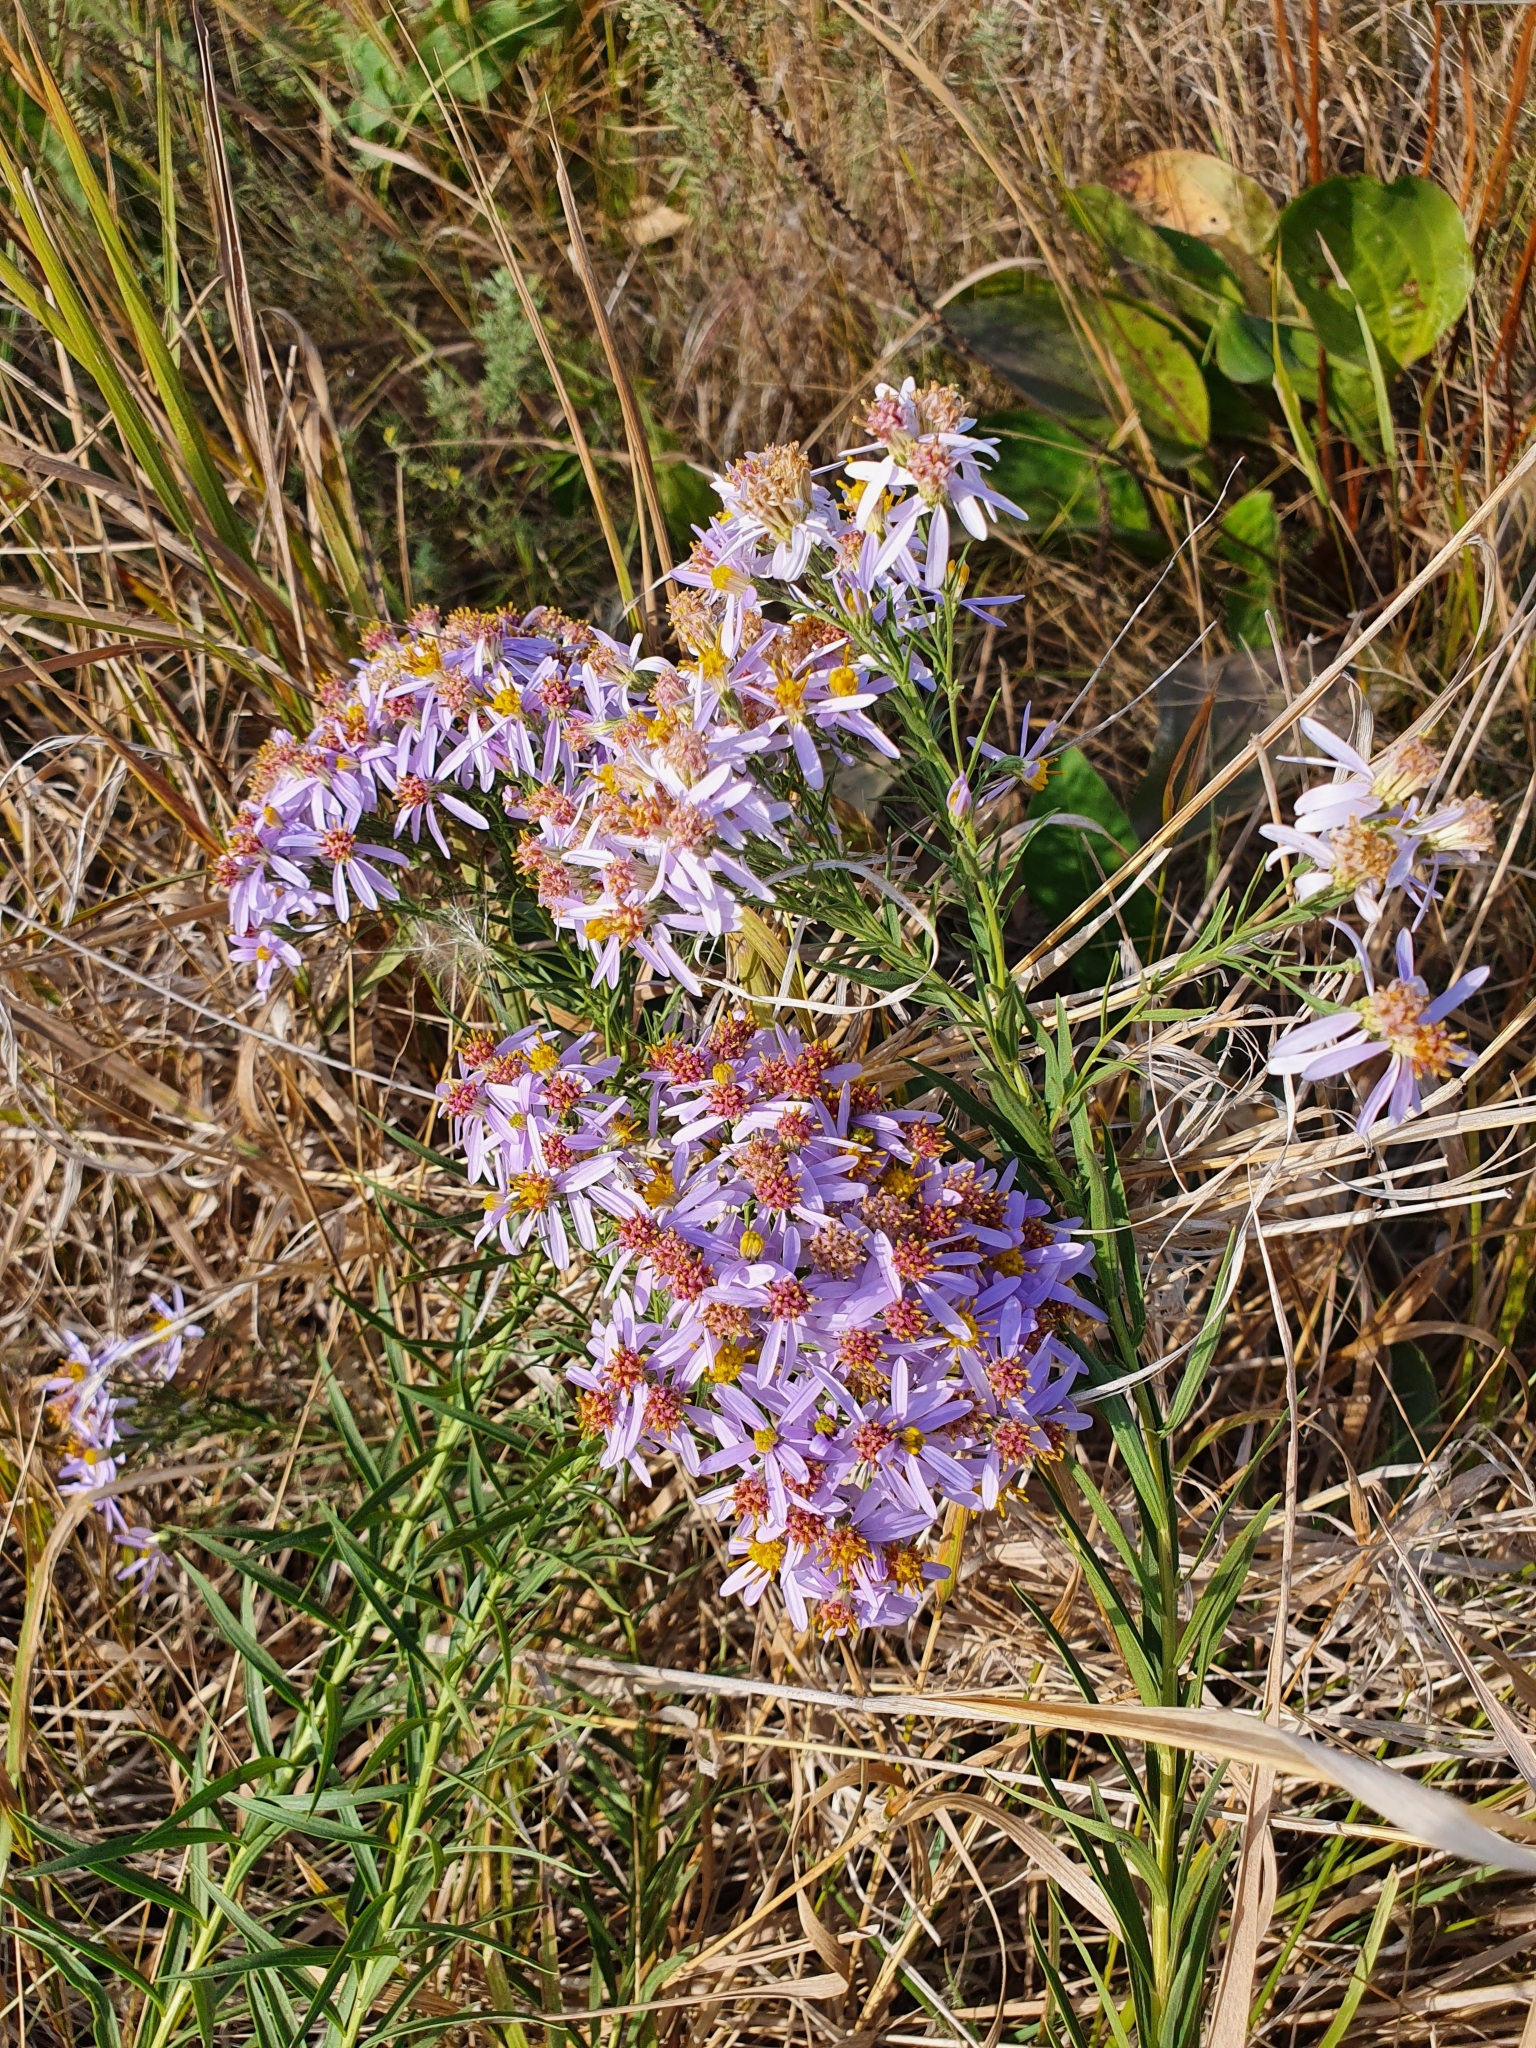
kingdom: Plantae
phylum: Tracheophyta
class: Magnoliopsida
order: Asterales
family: Asteraceae
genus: Galatella
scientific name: Galatella sedifolia
